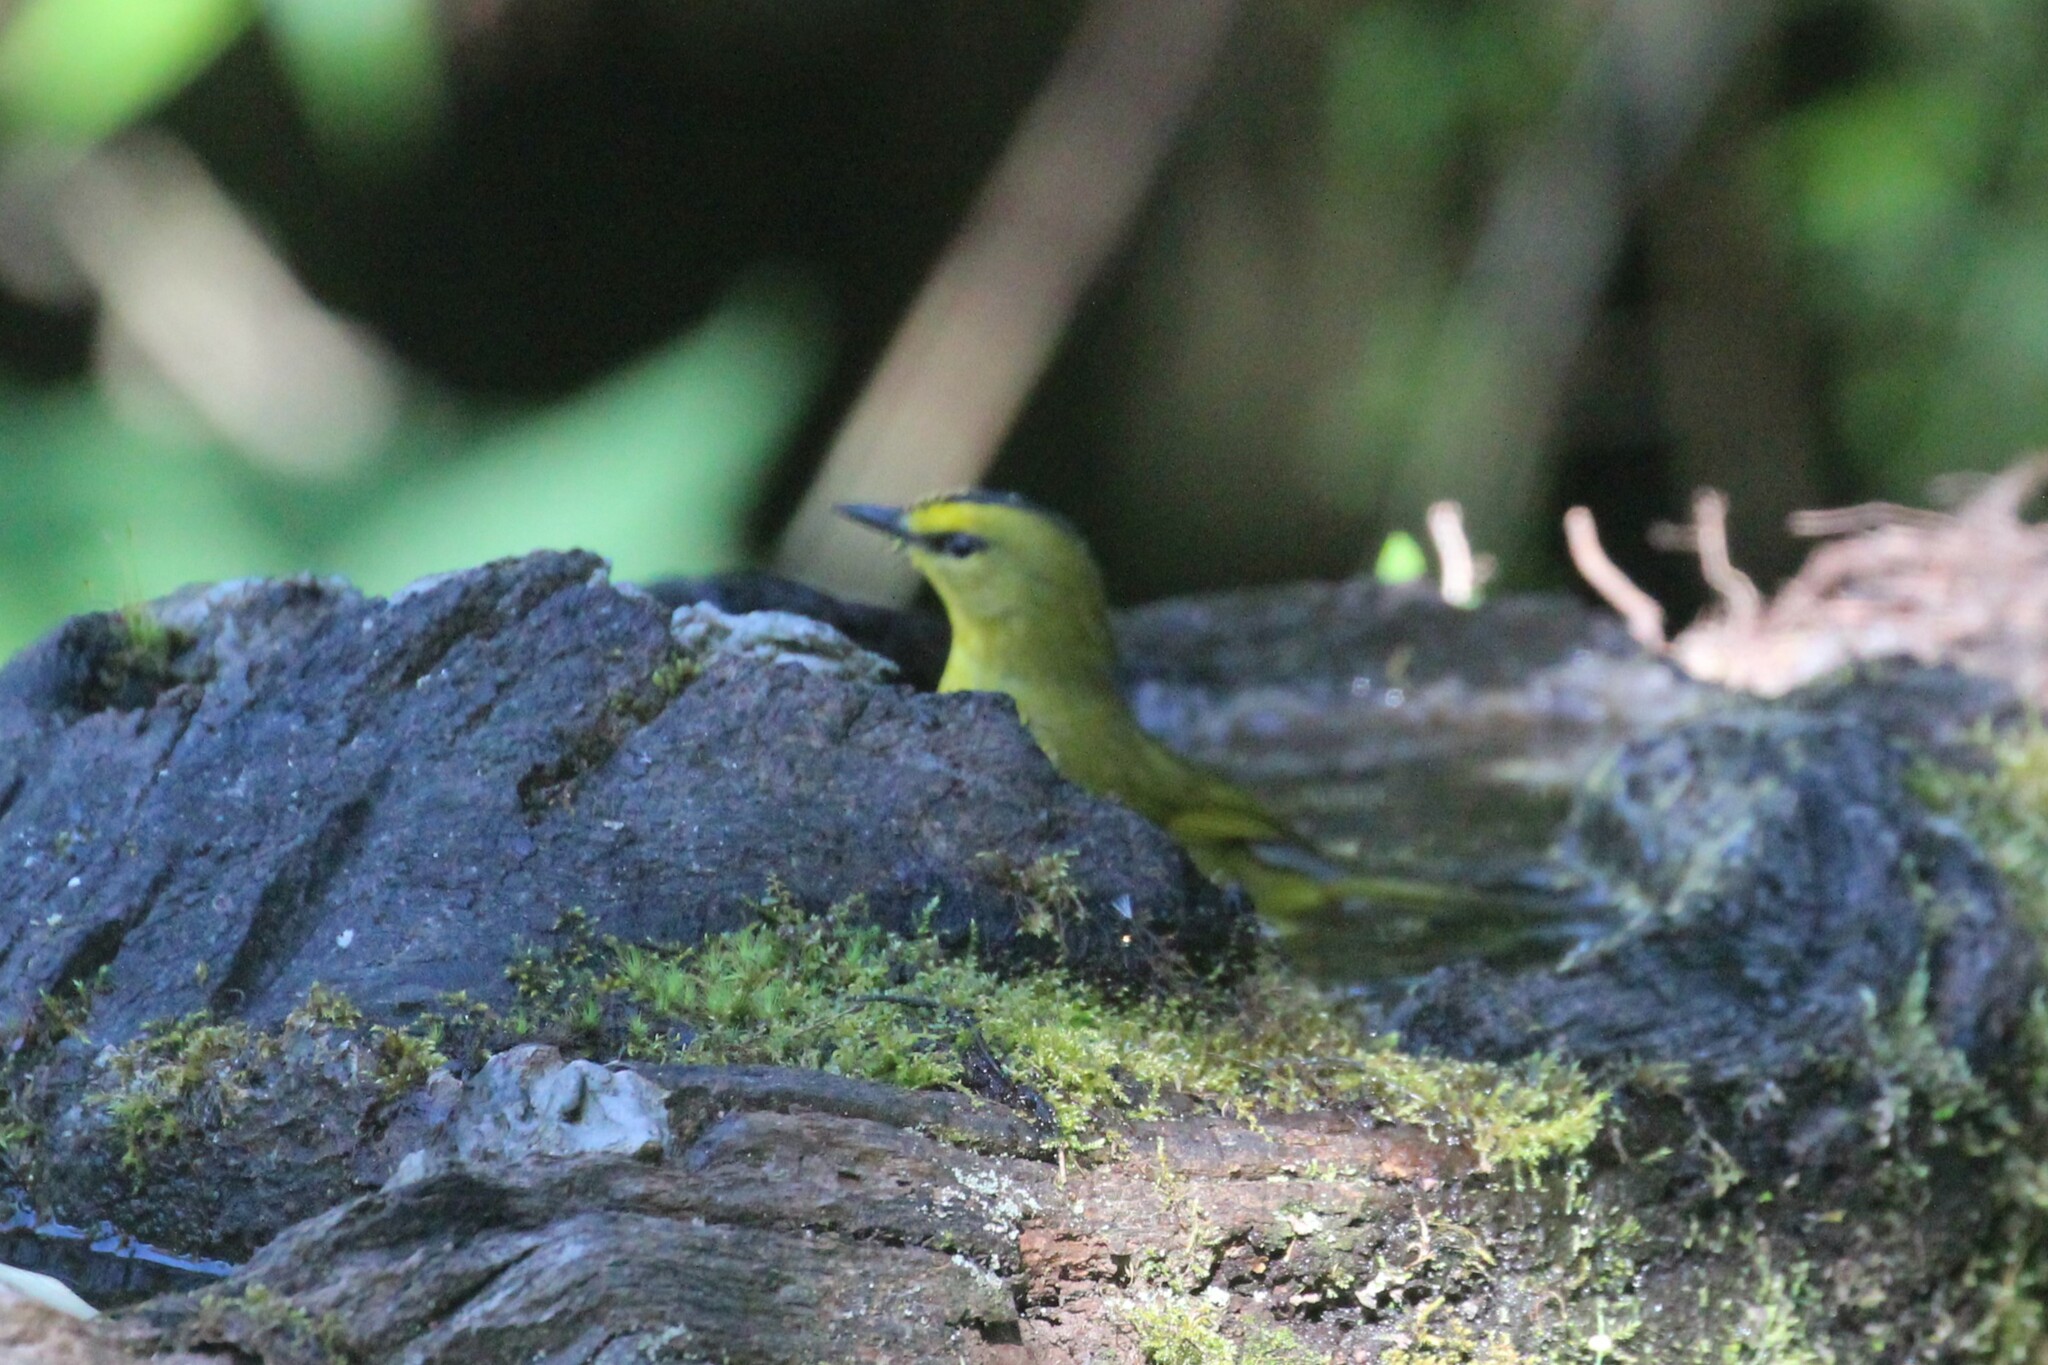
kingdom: Animalia
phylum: Chordata
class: Aves
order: Passeriformes
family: Parulidae
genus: Myiothlypis
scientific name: Myiothlypis nigrocristata
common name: Black-crested warbler
